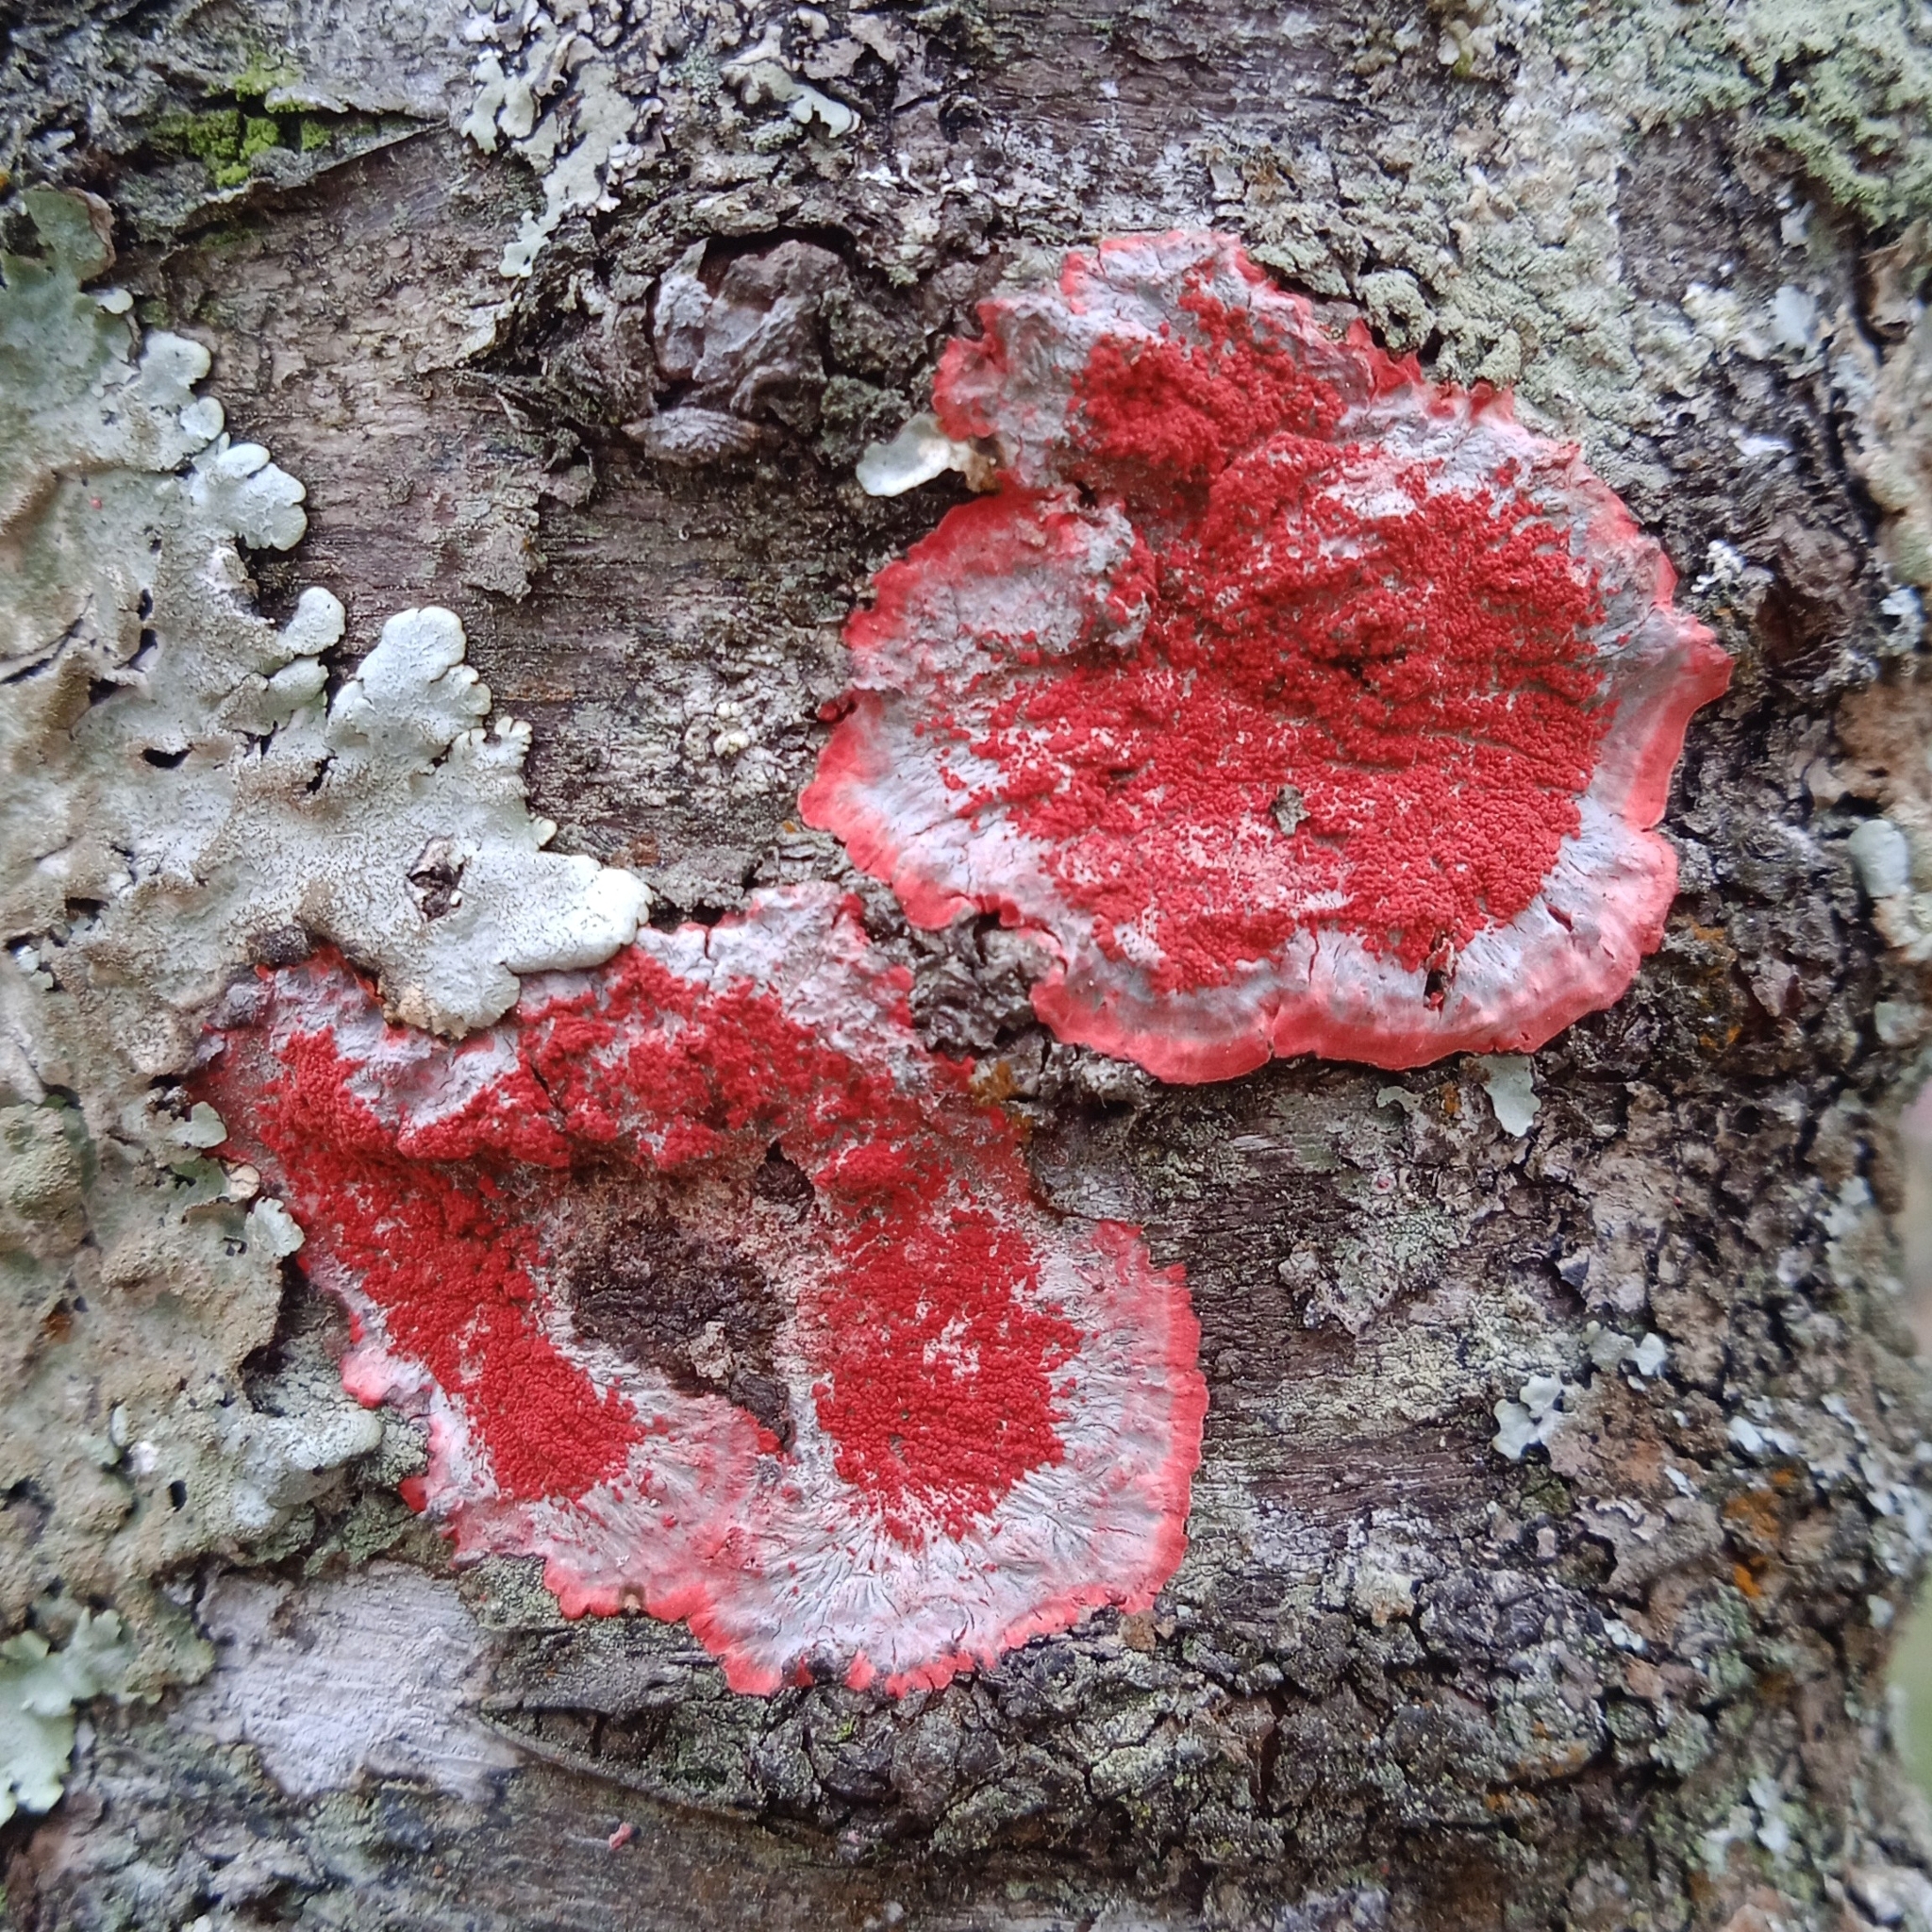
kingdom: Fungi
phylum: Ascomycota
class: Arthoniomycetes
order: Arthoniales
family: Arthoniaceae
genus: Herpothallon
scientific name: Herpothallon rubrocinctum
